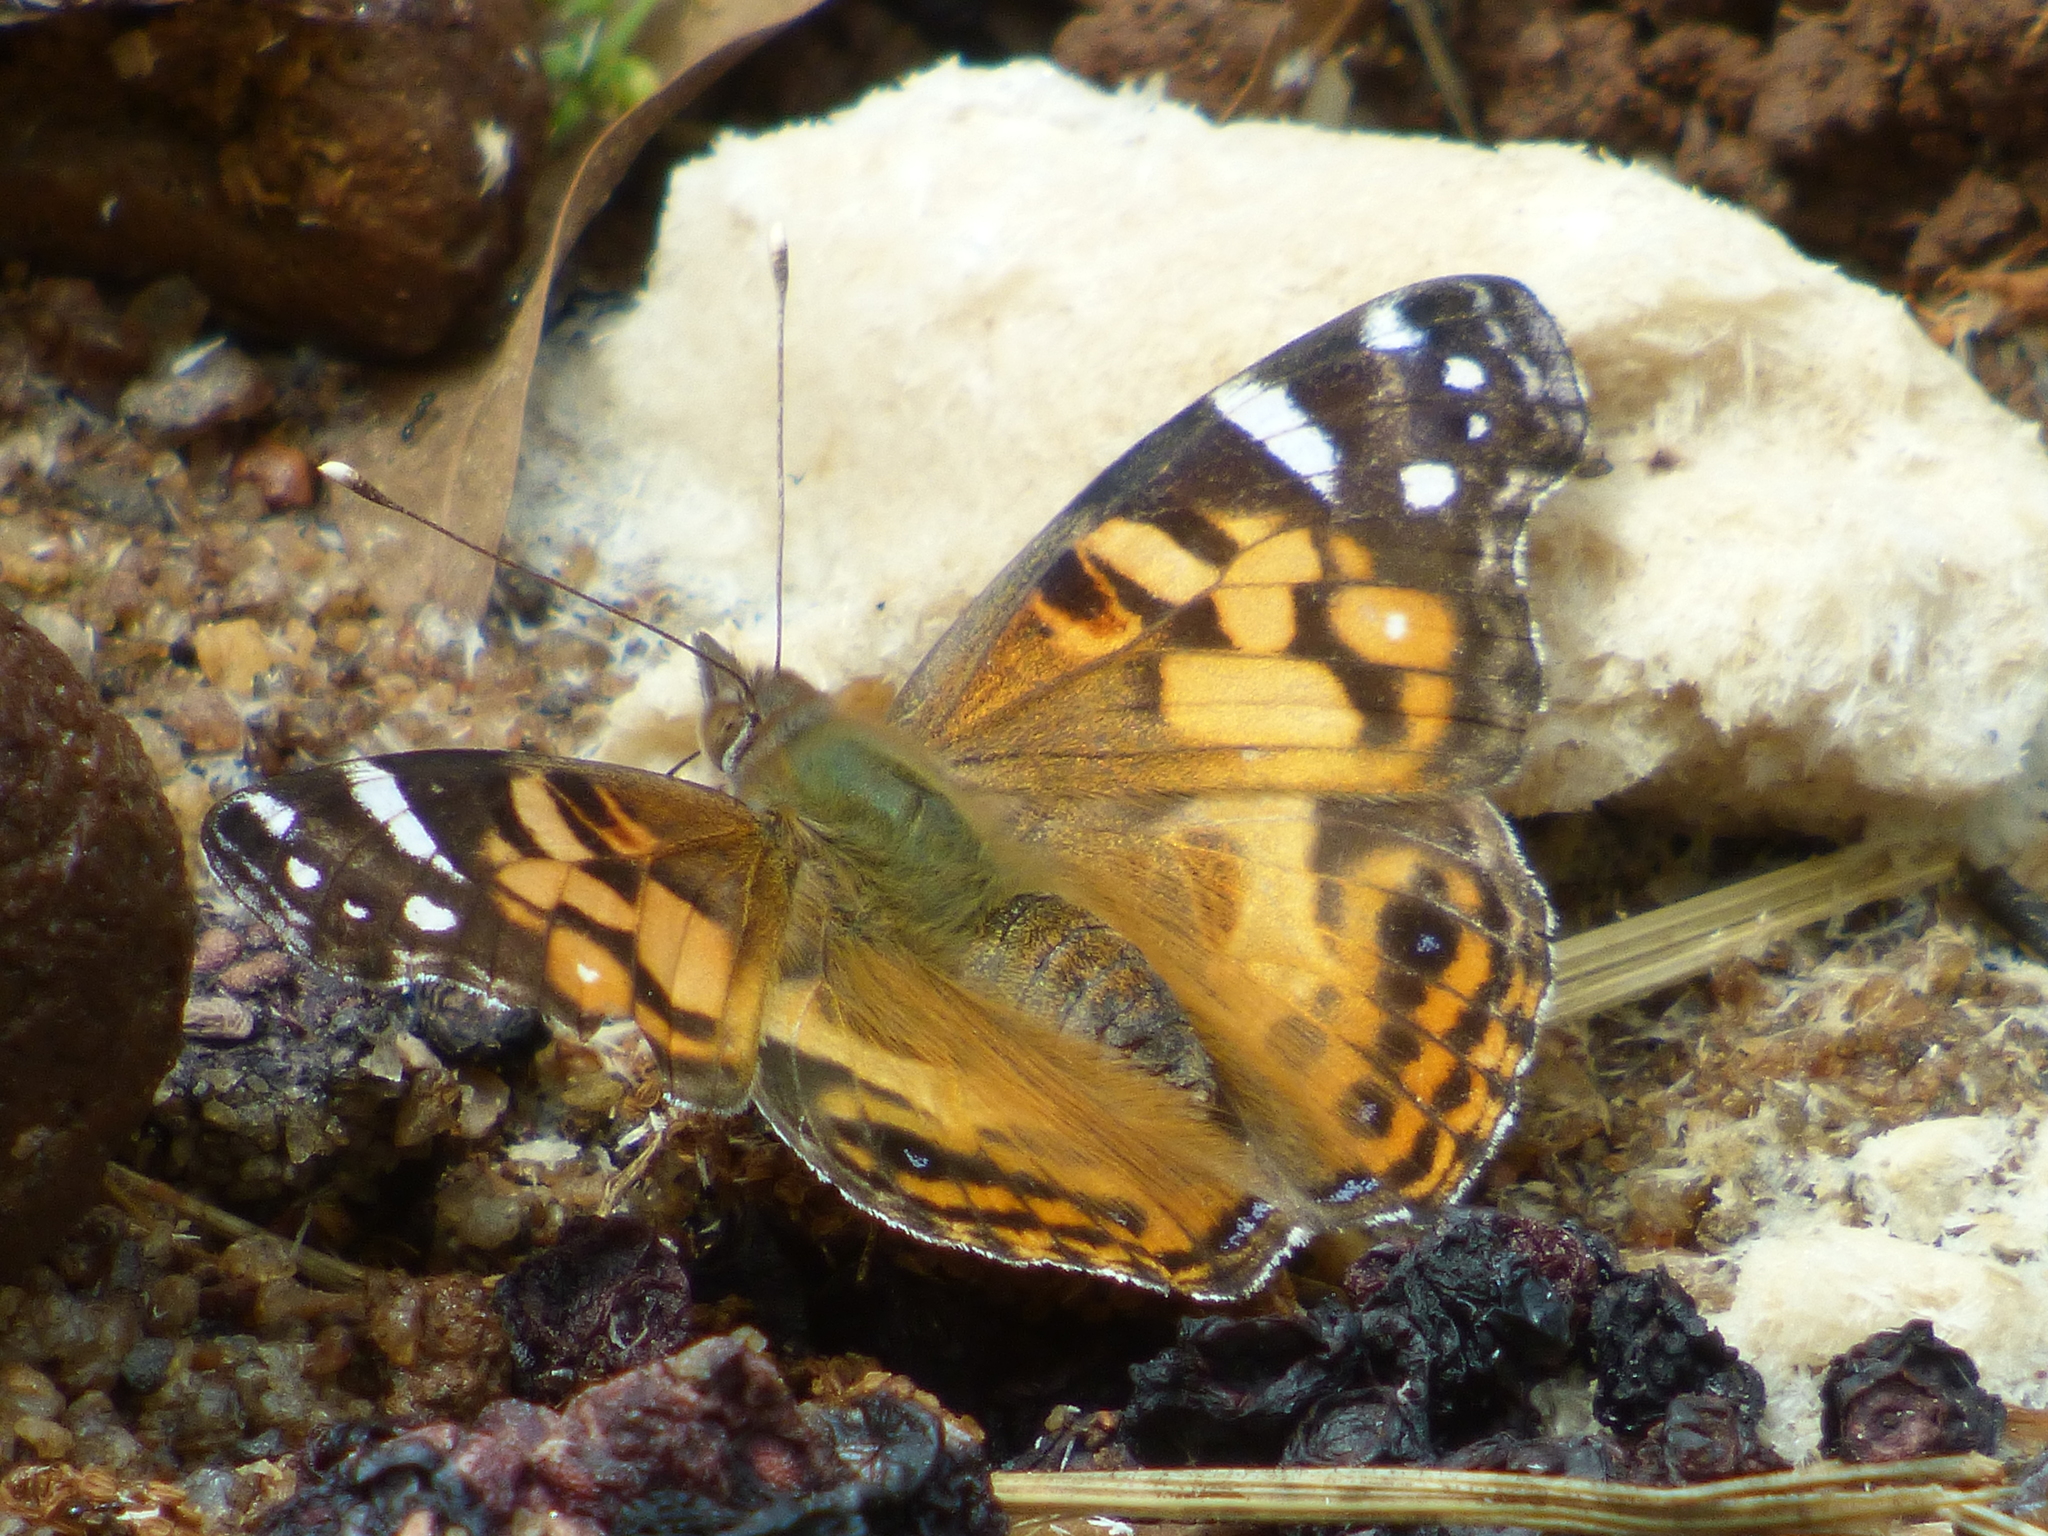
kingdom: Animalia
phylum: Arthropoda
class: Insecta
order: Lepidoptera
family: Nymphalidae
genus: Vanessa
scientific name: Vanessa virginiensis
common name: American lady
